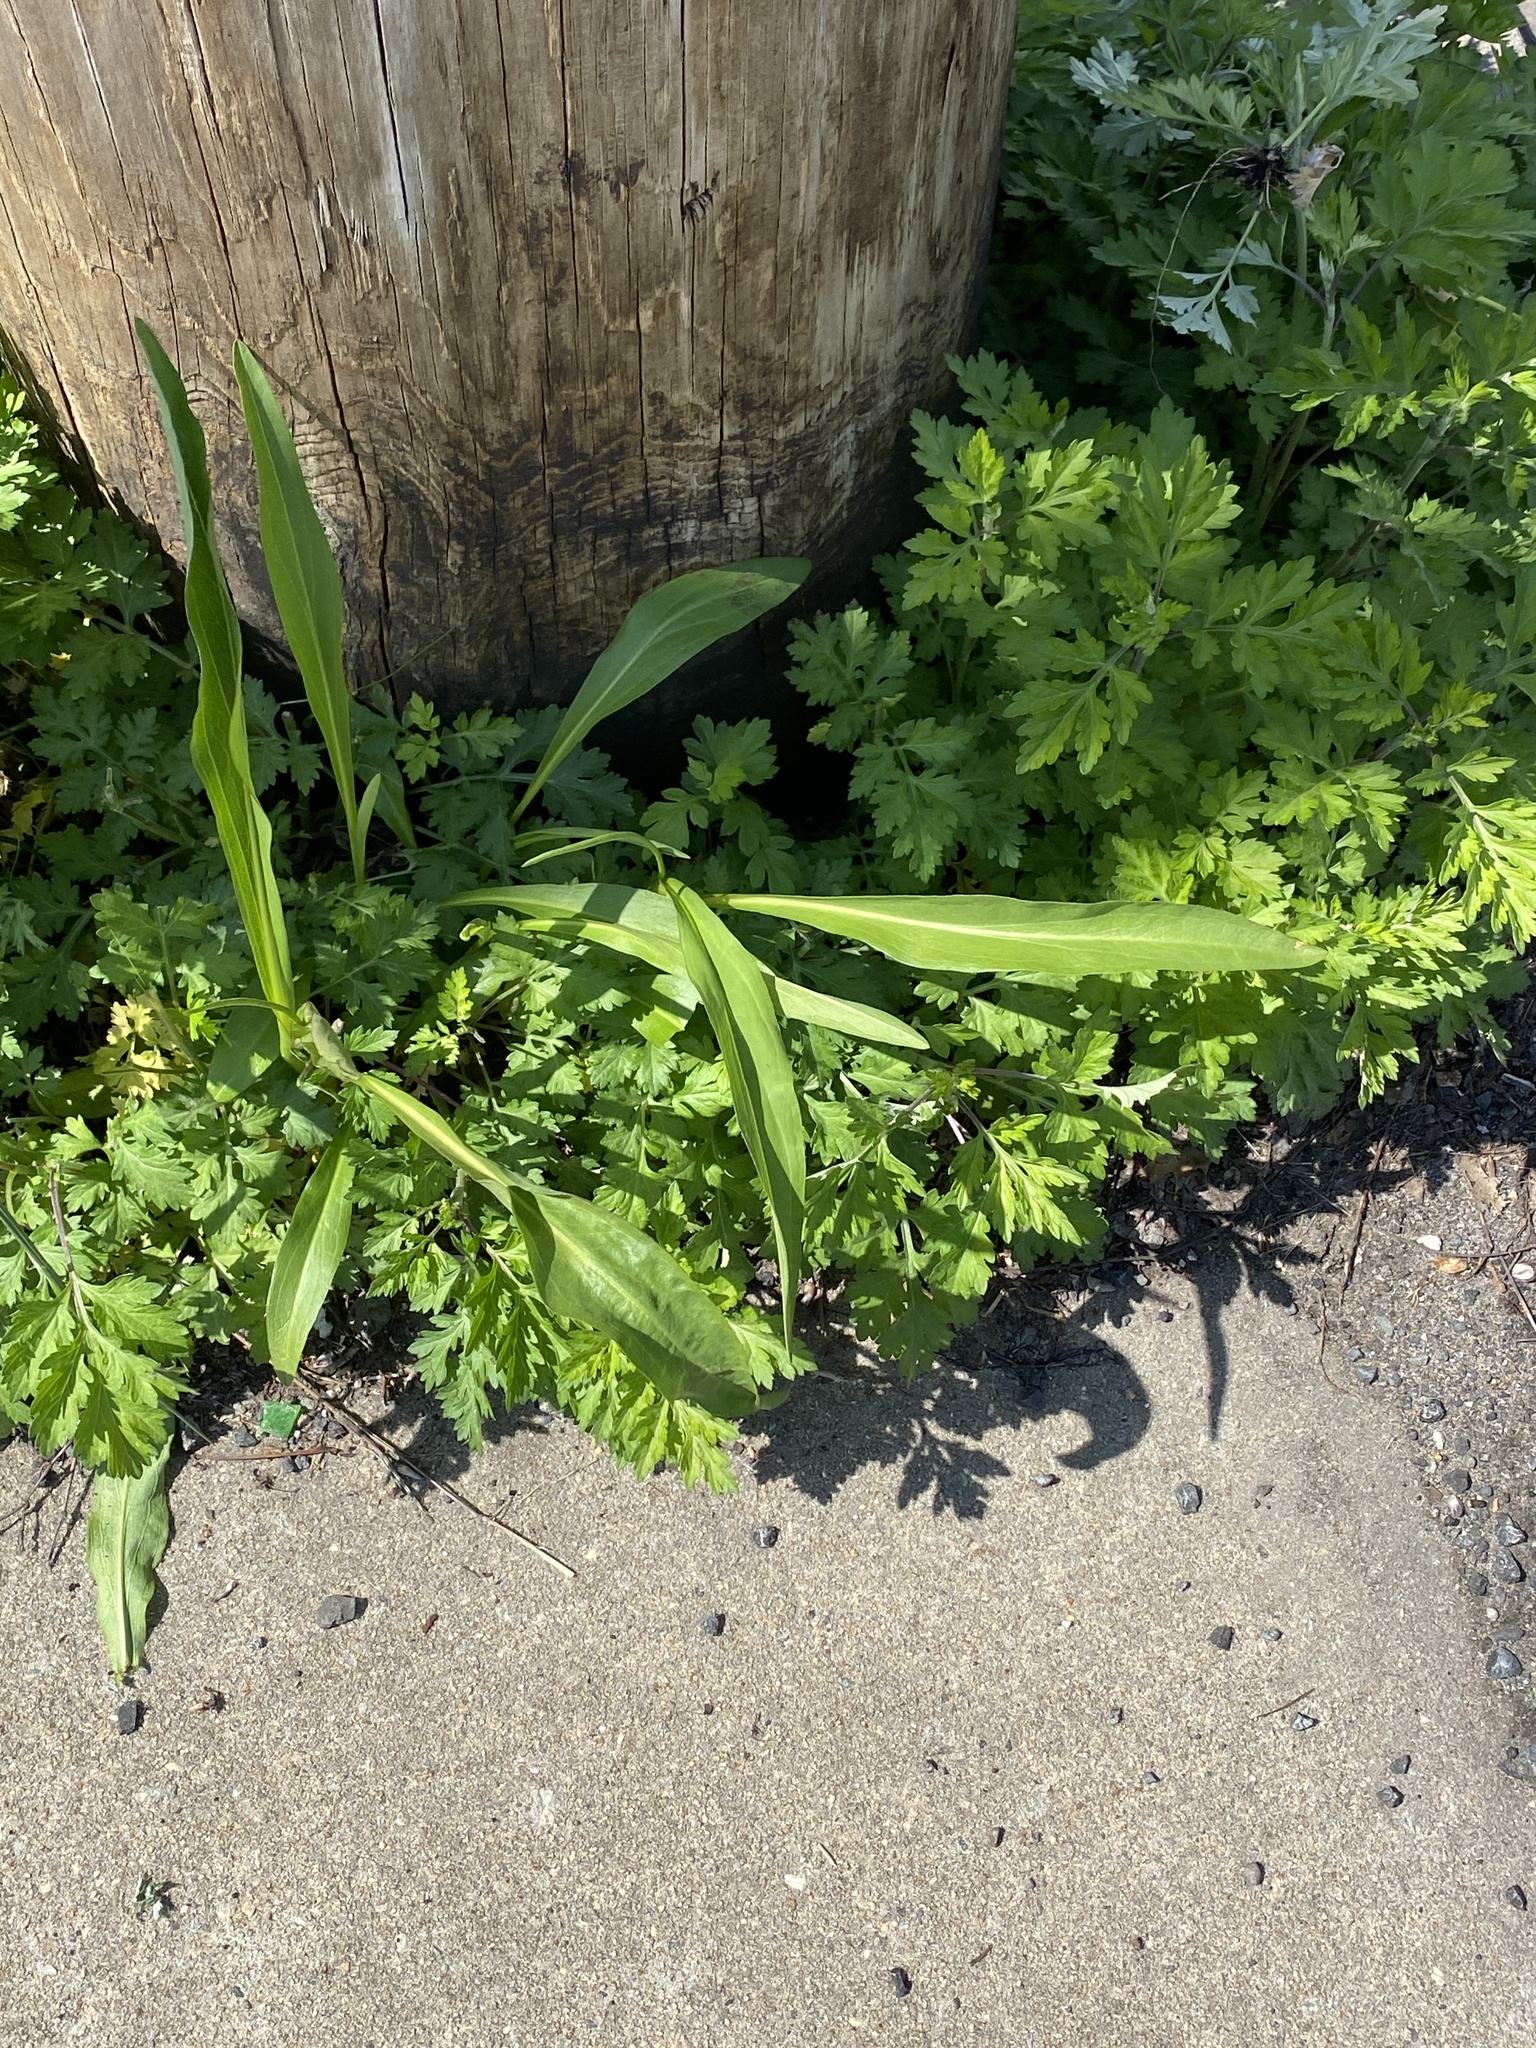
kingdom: Plantae
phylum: Tracheophyta
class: Magnoliopsida
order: Asterales
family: Asteraceae
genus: Solidago
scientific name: Solidago sempervirens
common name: Salt-marsh goldenrod
